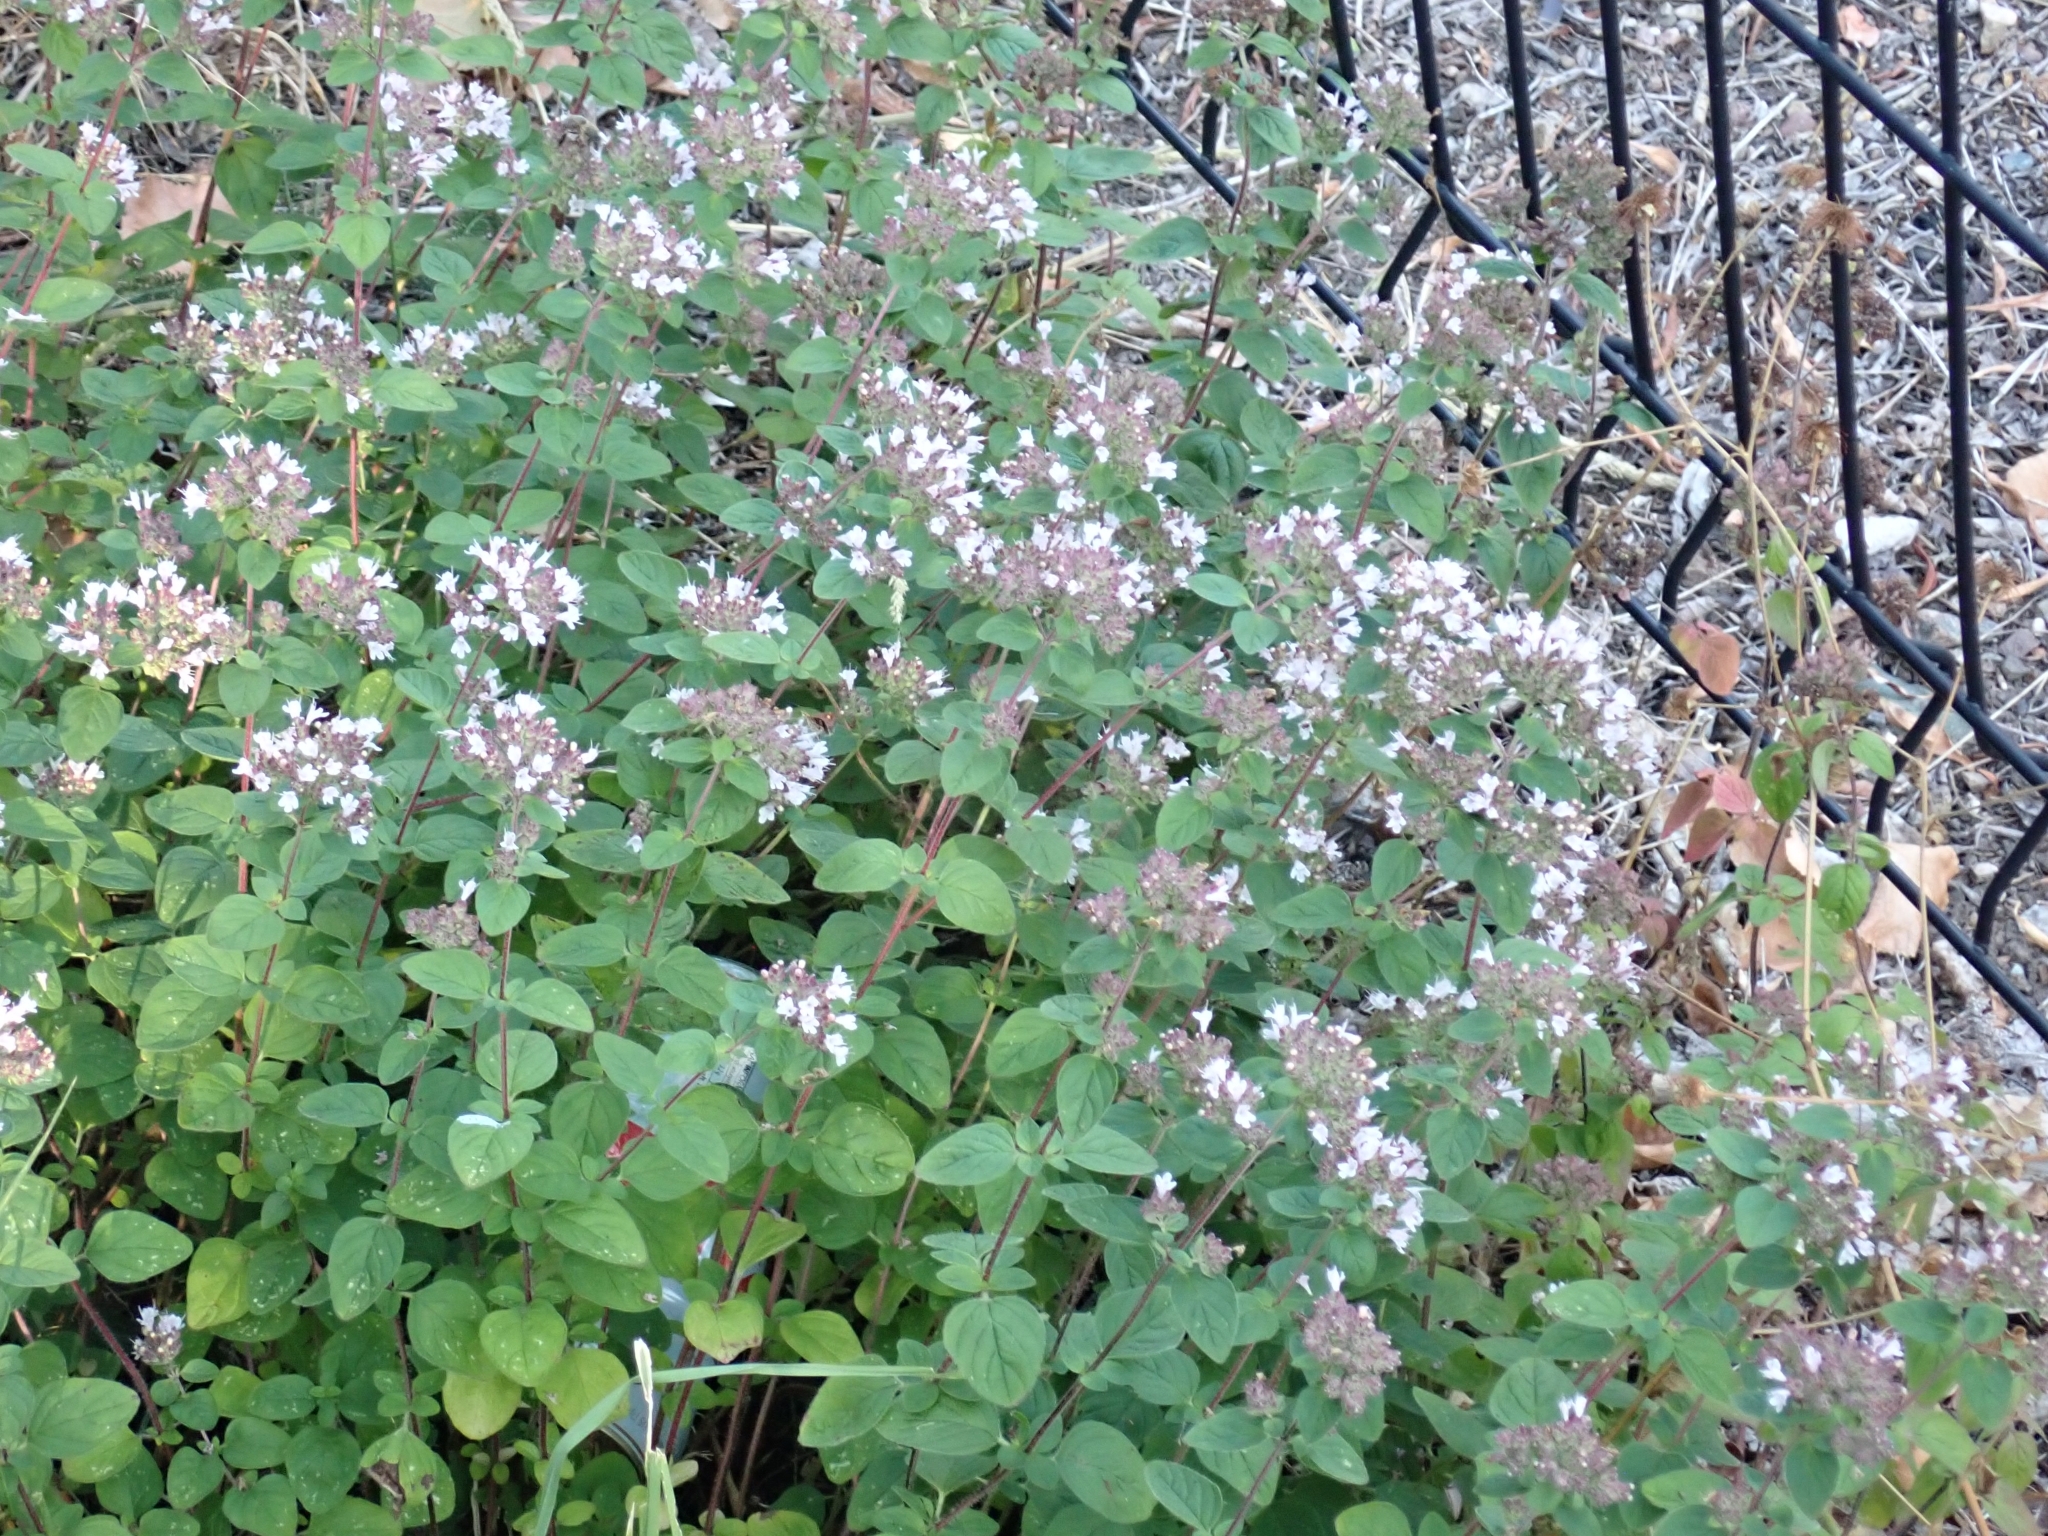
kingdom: Plantae
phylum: Tracheophyta
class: Magnoliopsida
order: Lamiales
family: Lamiaceae
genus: Origanum
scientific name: Origanum vulgare
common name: Wild marjoram
